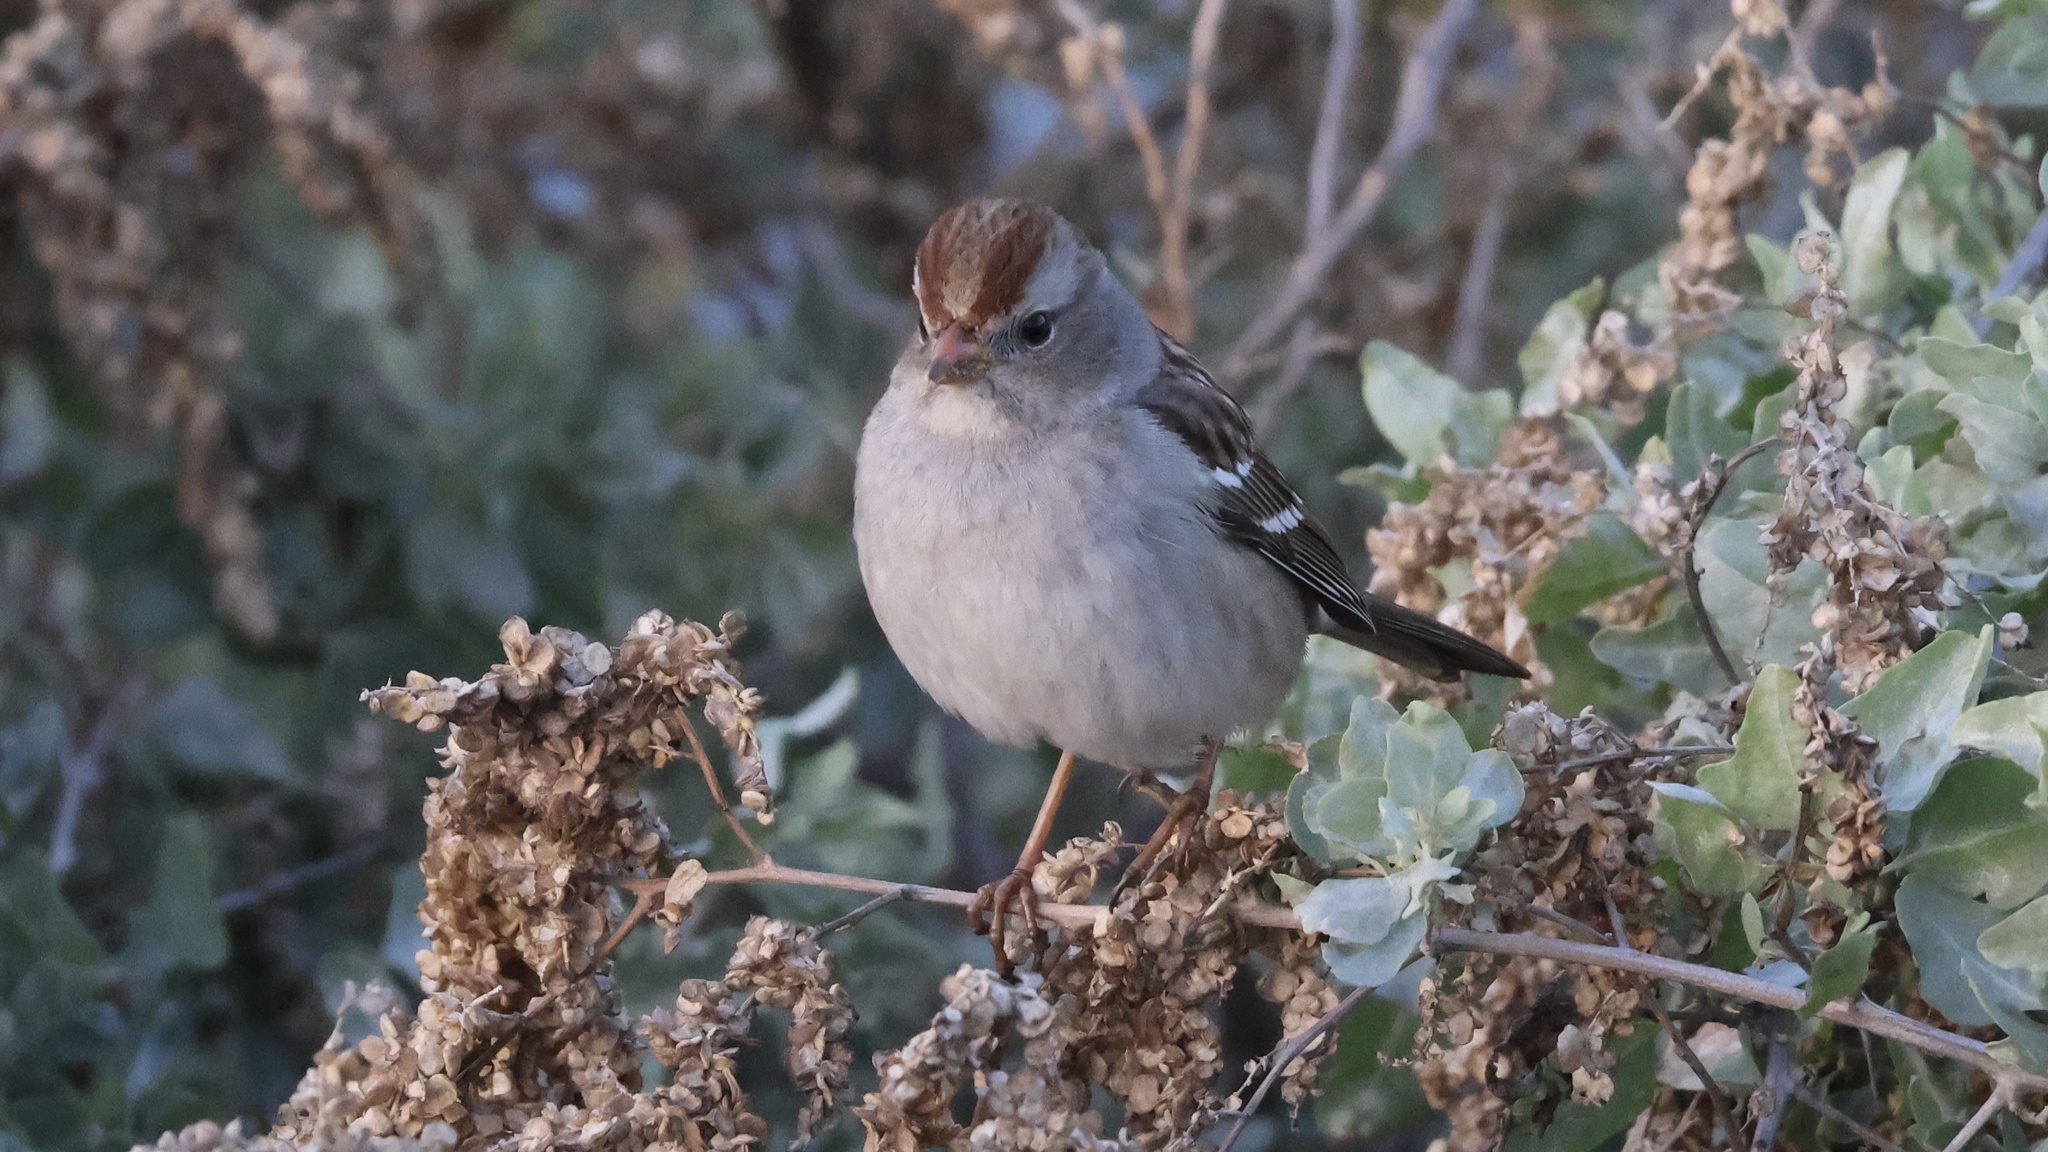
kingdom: Animalia
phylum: Chordata
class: Aves
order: Passeriformes
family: Passerellidae
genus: Zonotrichia
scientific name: Zonotrichia leucophrys
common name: White-crowned sparrow
